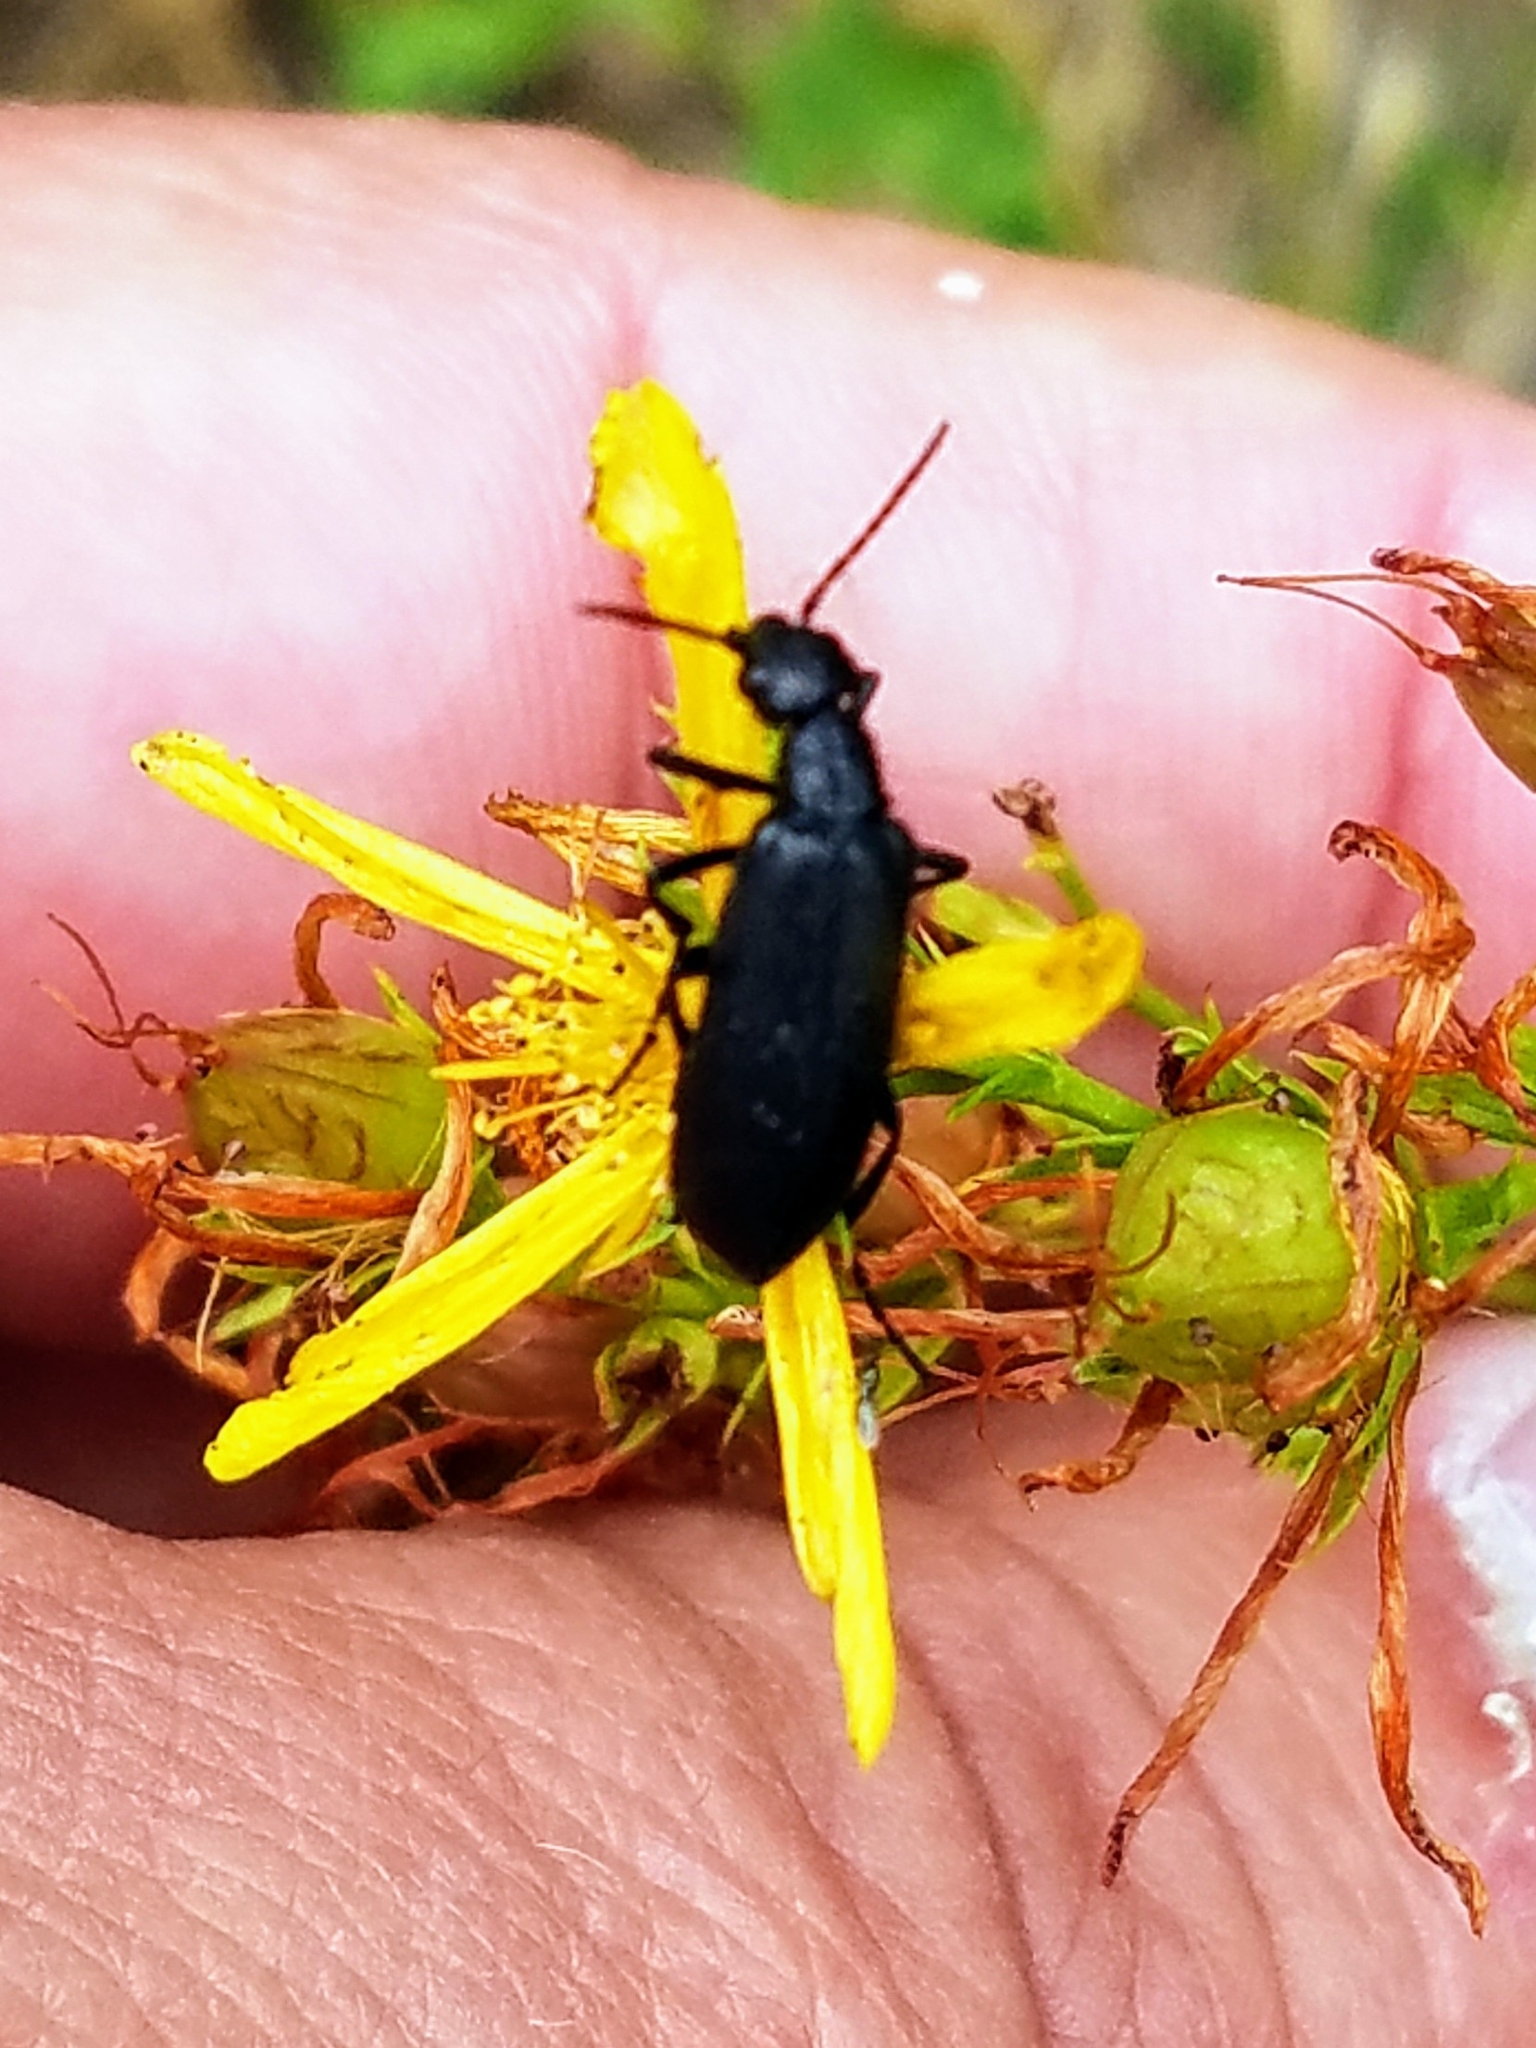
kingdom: Animalia
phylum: Arthropoda
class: Insecta
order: Coleoptera
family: Meloidae
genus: Epicauta
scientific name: Epicauta puncticollis
